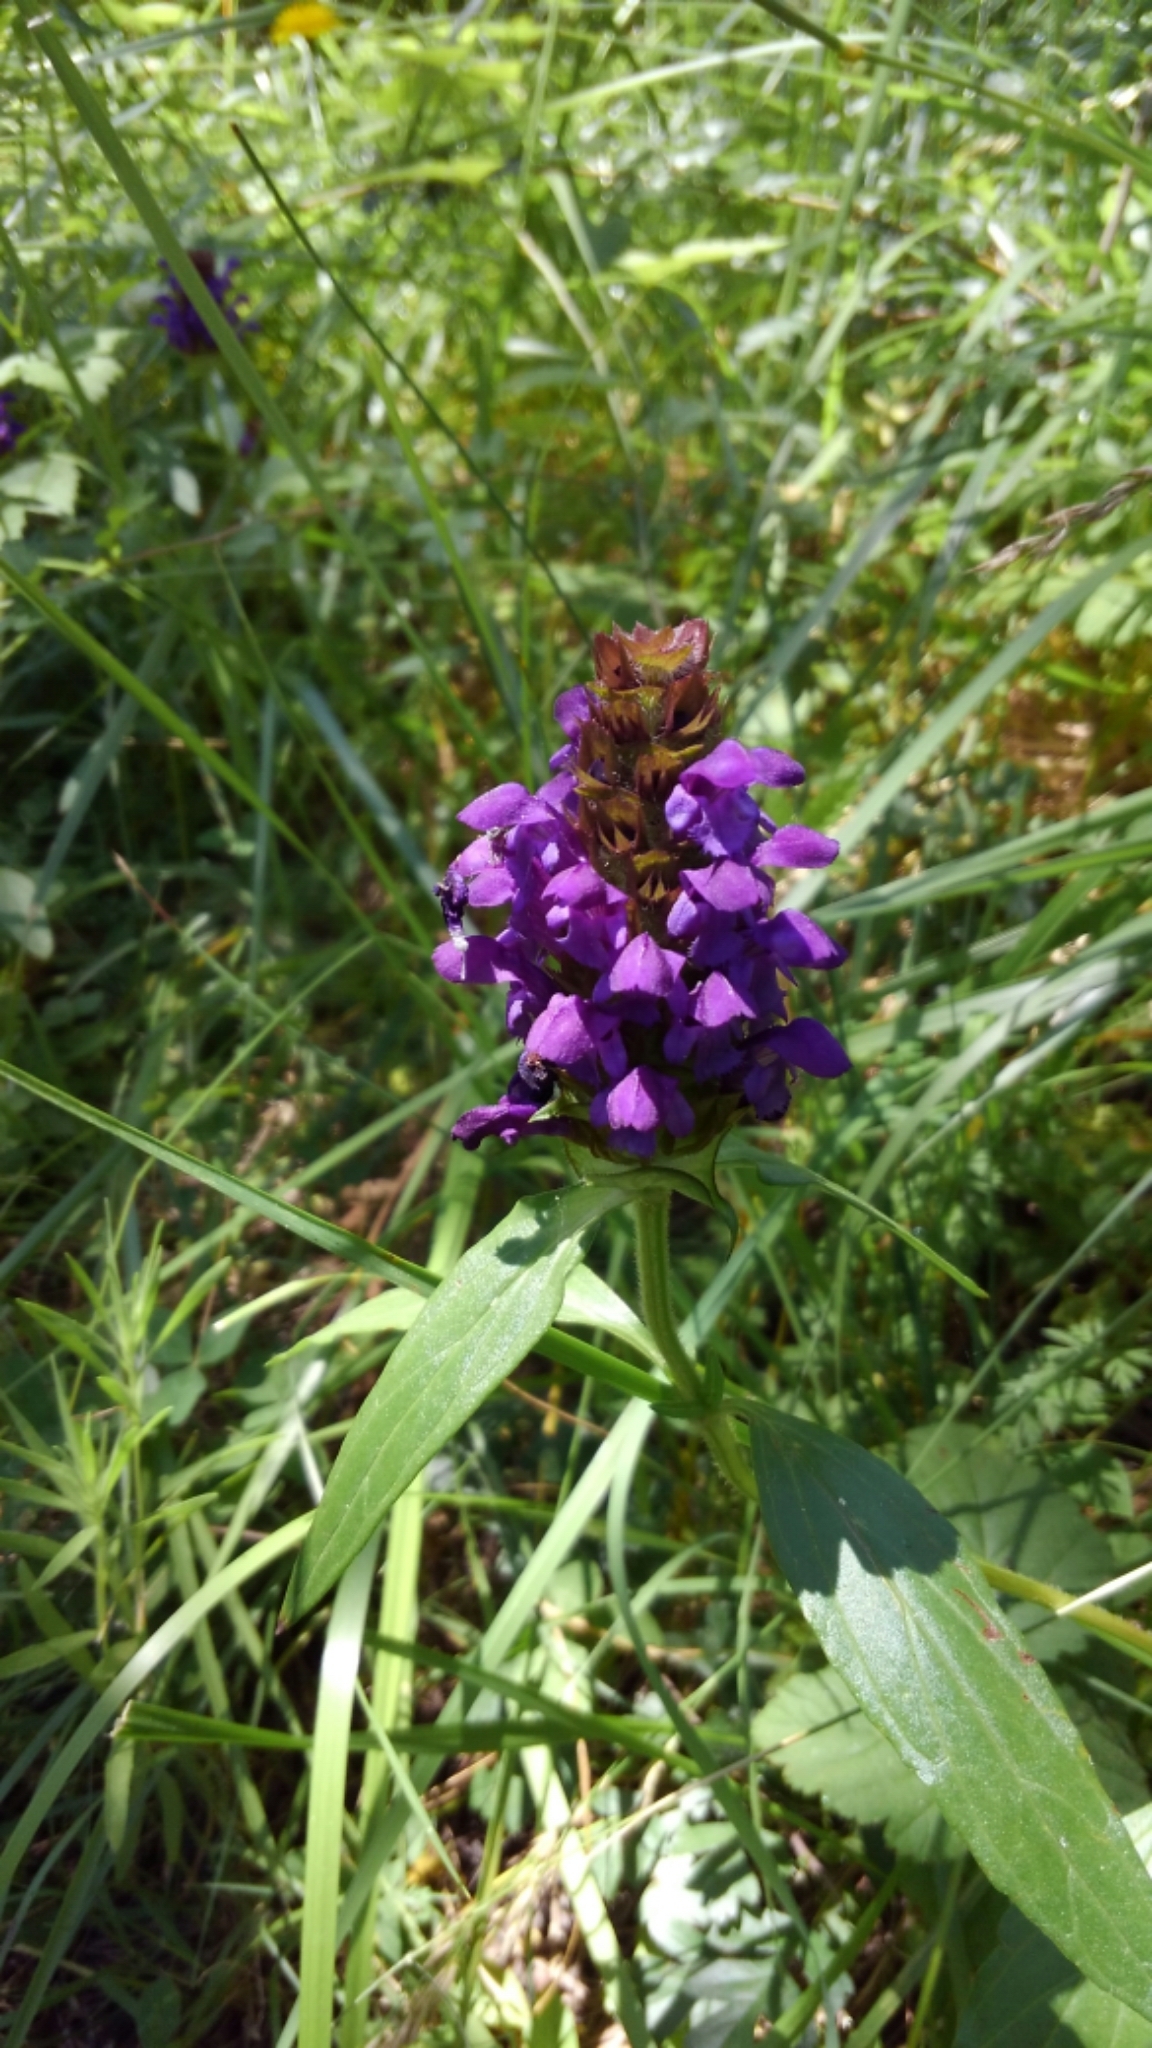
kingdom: Plantae
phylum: Tracheophyta
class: Magnoliopsida
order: Lamiales
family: Lamiaceae
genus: Prunella
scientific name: Prunella vulgaris
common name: Heal-all
